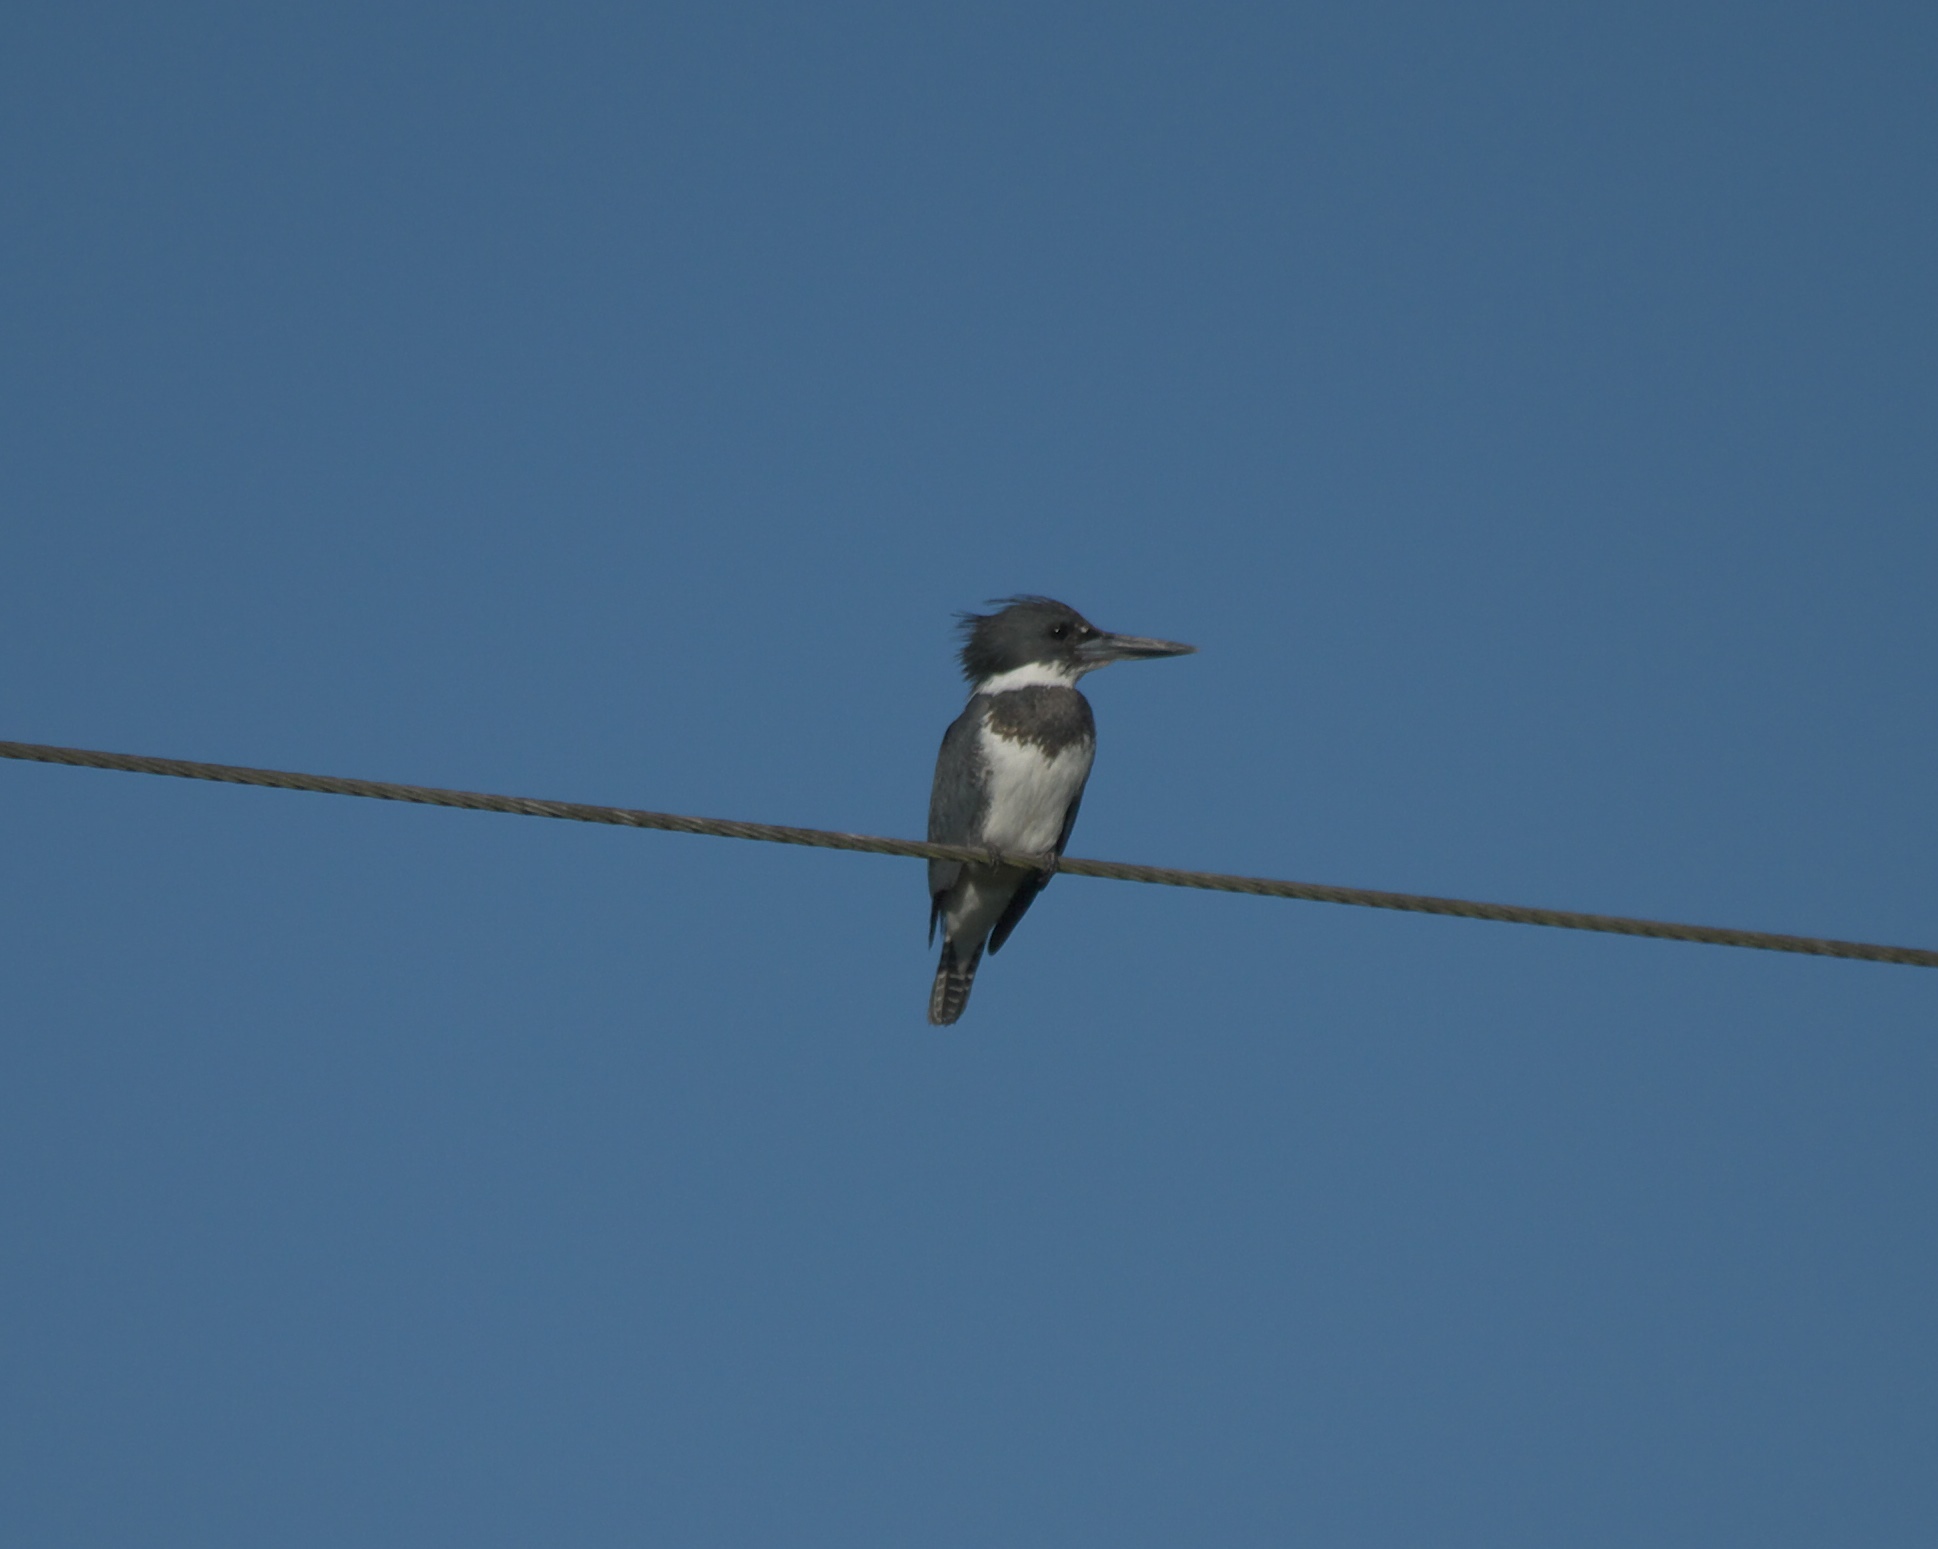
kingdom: Animalia
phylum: Chordata
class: Aves
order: Coraciiformes
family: Alcedinidae
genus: Megaceryle
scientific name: Megaceryle alcyon
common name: Belted kingfisher
